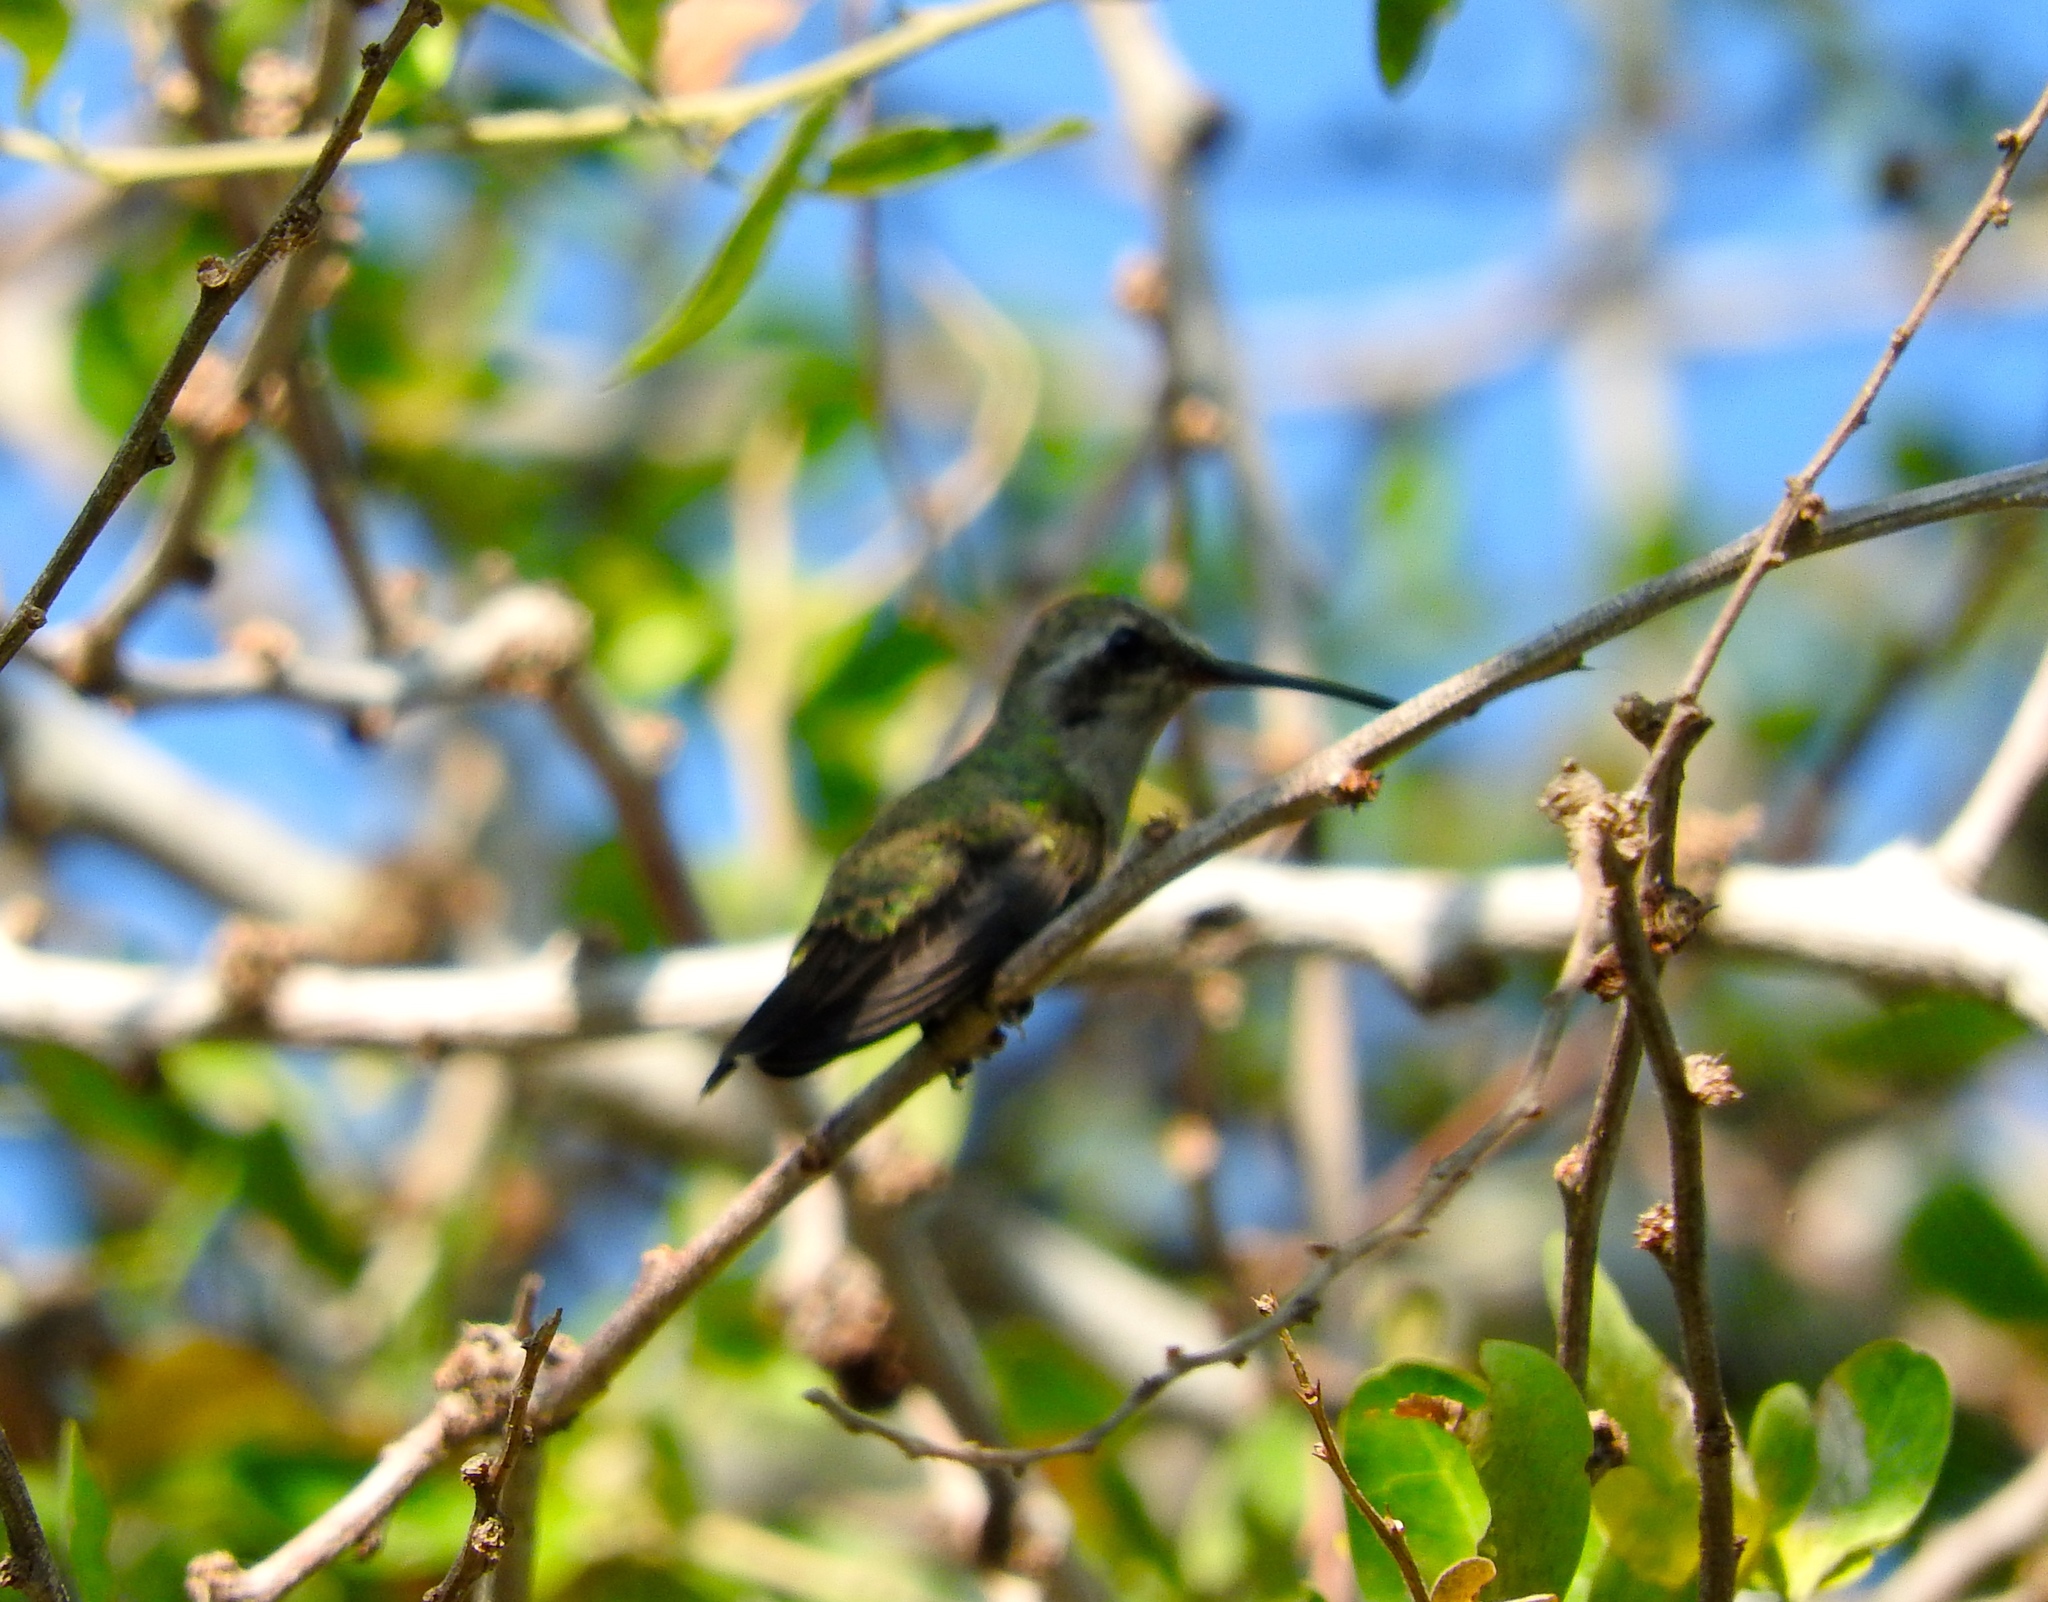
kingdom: Animalia
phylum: Chordata
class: Aves
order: Apodiformes
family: Trochilidae
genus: Cynanthus
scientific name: Cynanthus latirostris
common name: Broad-billed hummingbird
